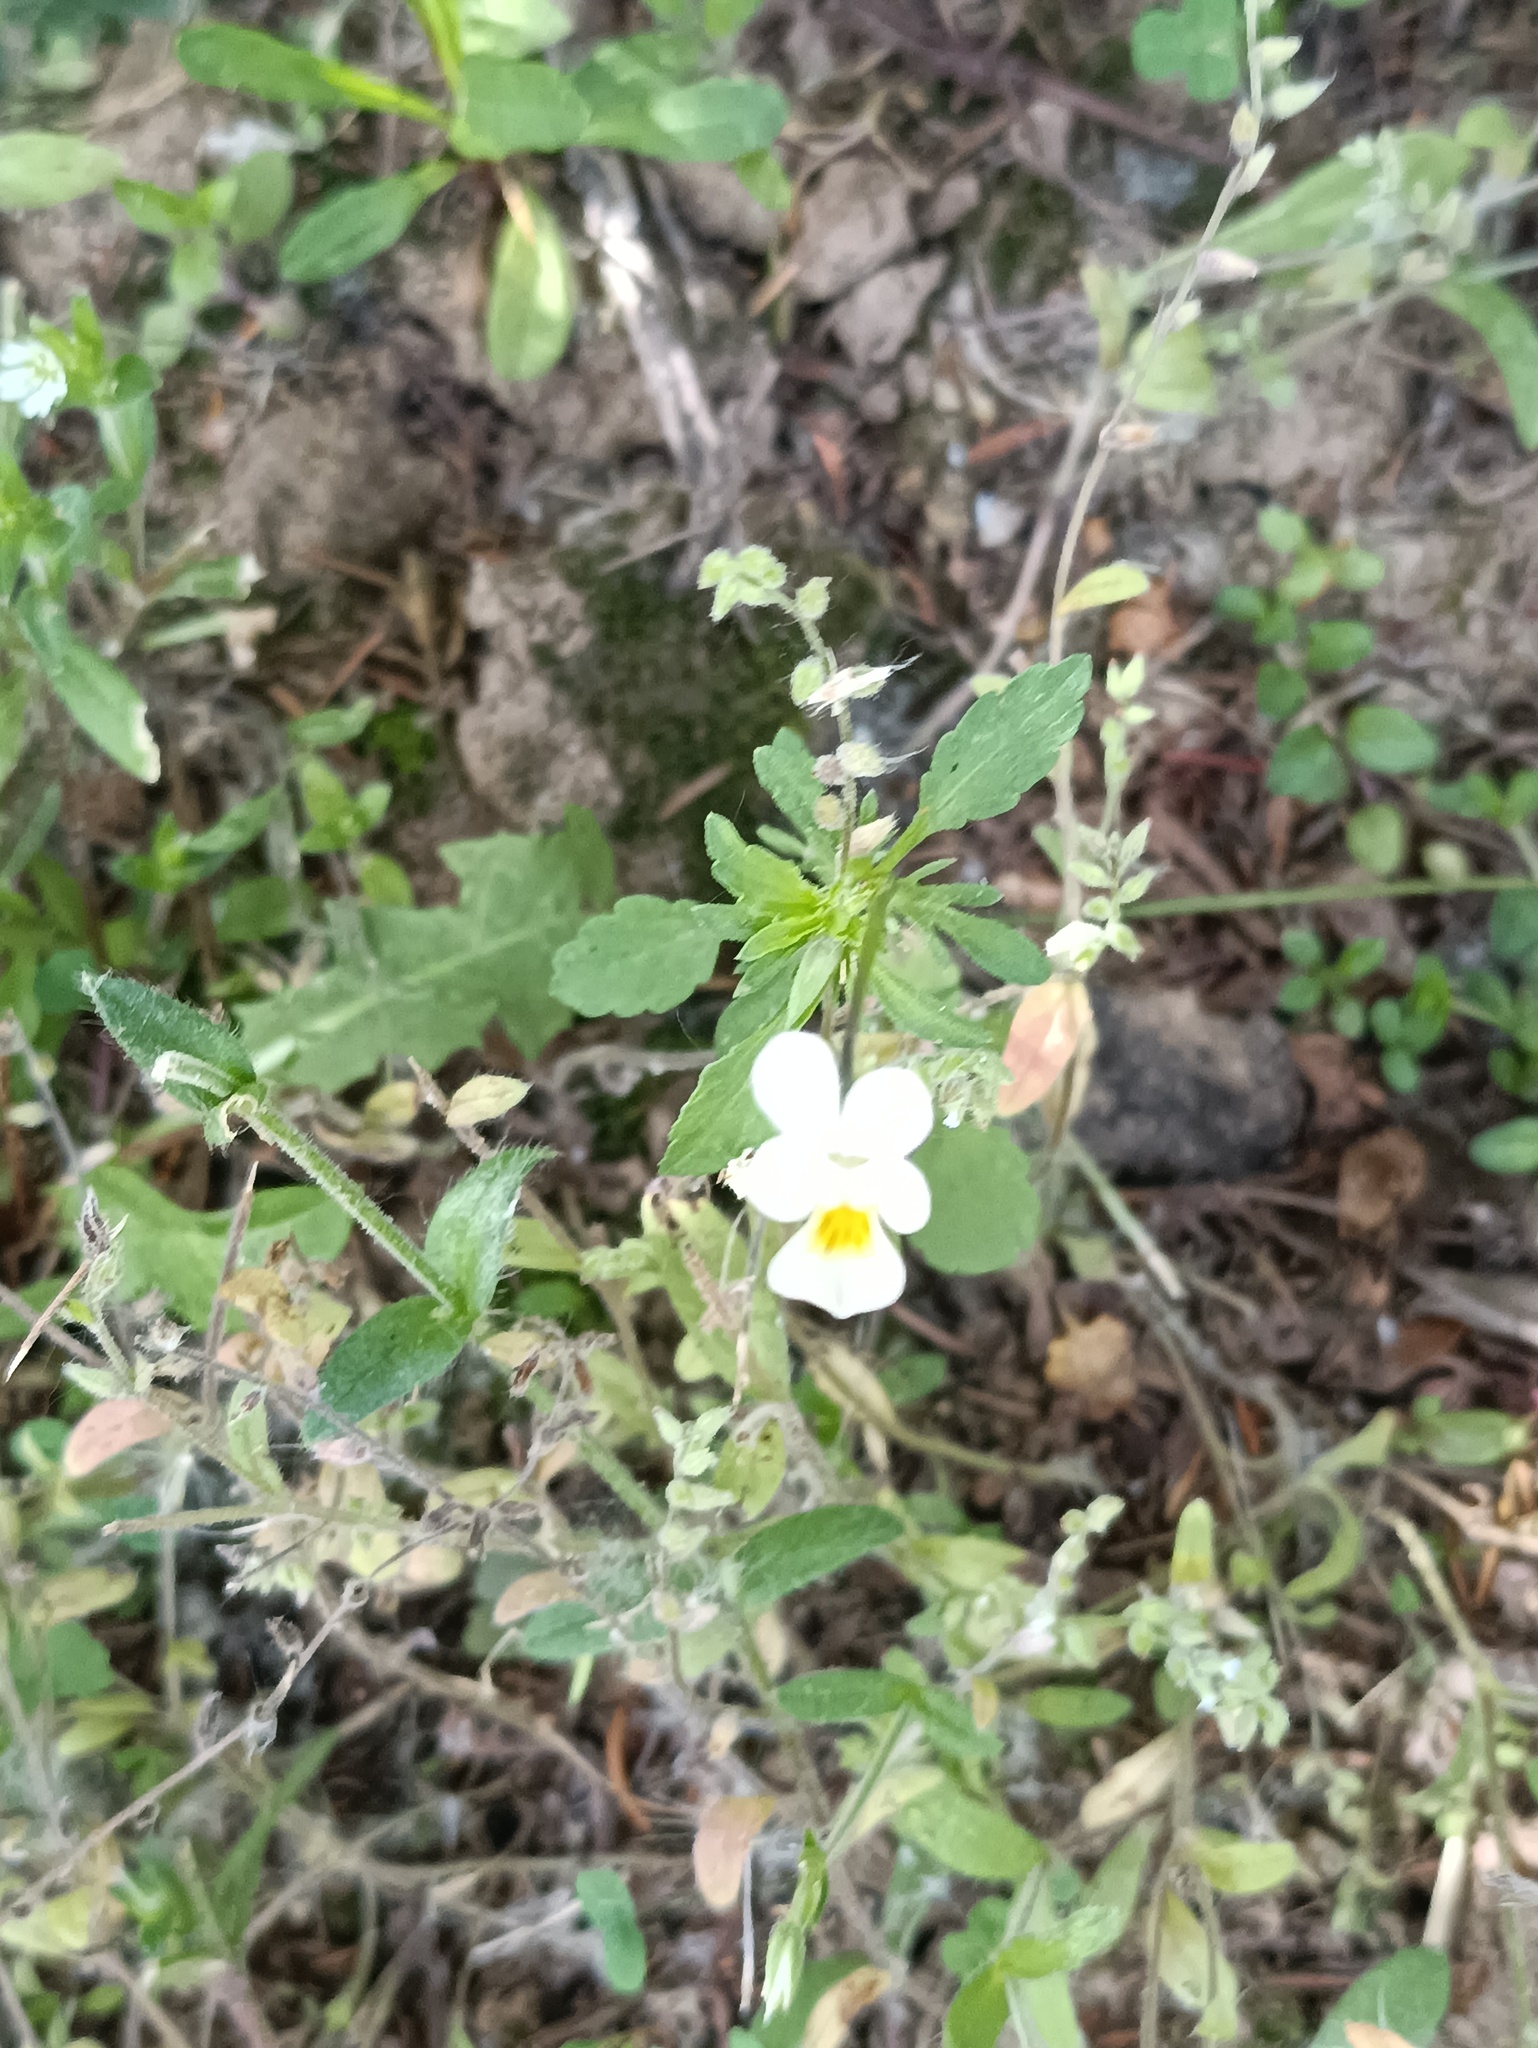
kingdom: Plantae
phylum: Tracheophyta
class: Magnoliopsida
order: Malpighiales
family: Violaceae
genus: Viola
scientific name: Viola arvensis
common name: Field pansy
